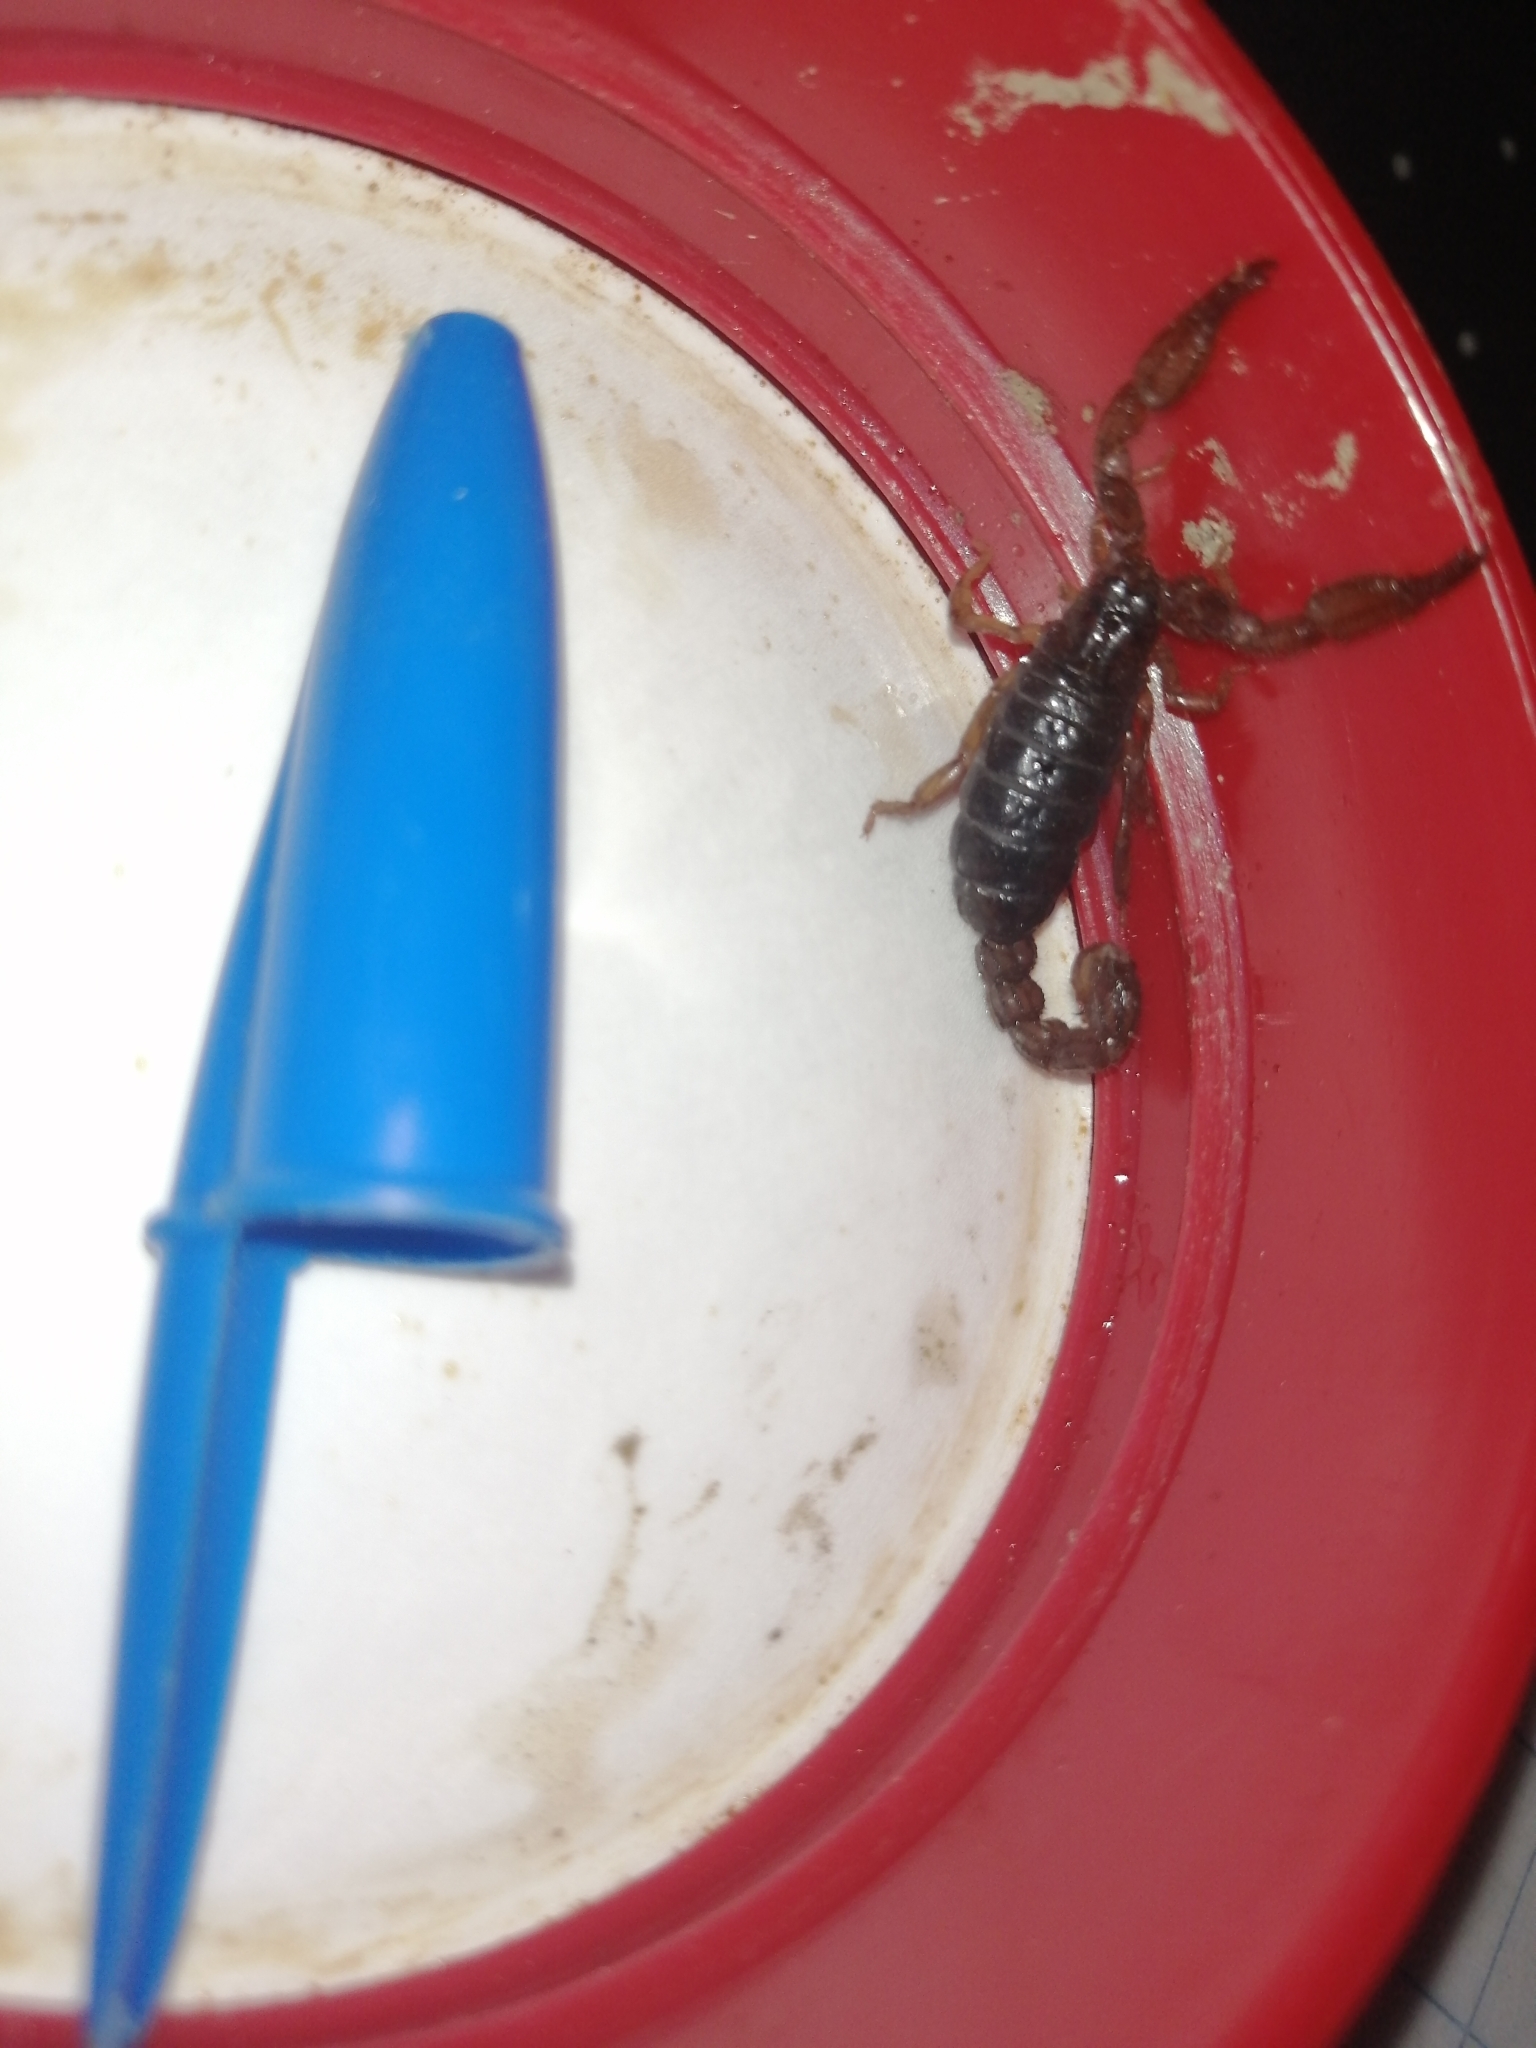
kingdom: Animalia
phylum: Arthropoda
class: Arachnida
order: Scorpiones
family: Diplocentridae
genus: Diplocentrus
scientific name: Diplocentrus reddelli
